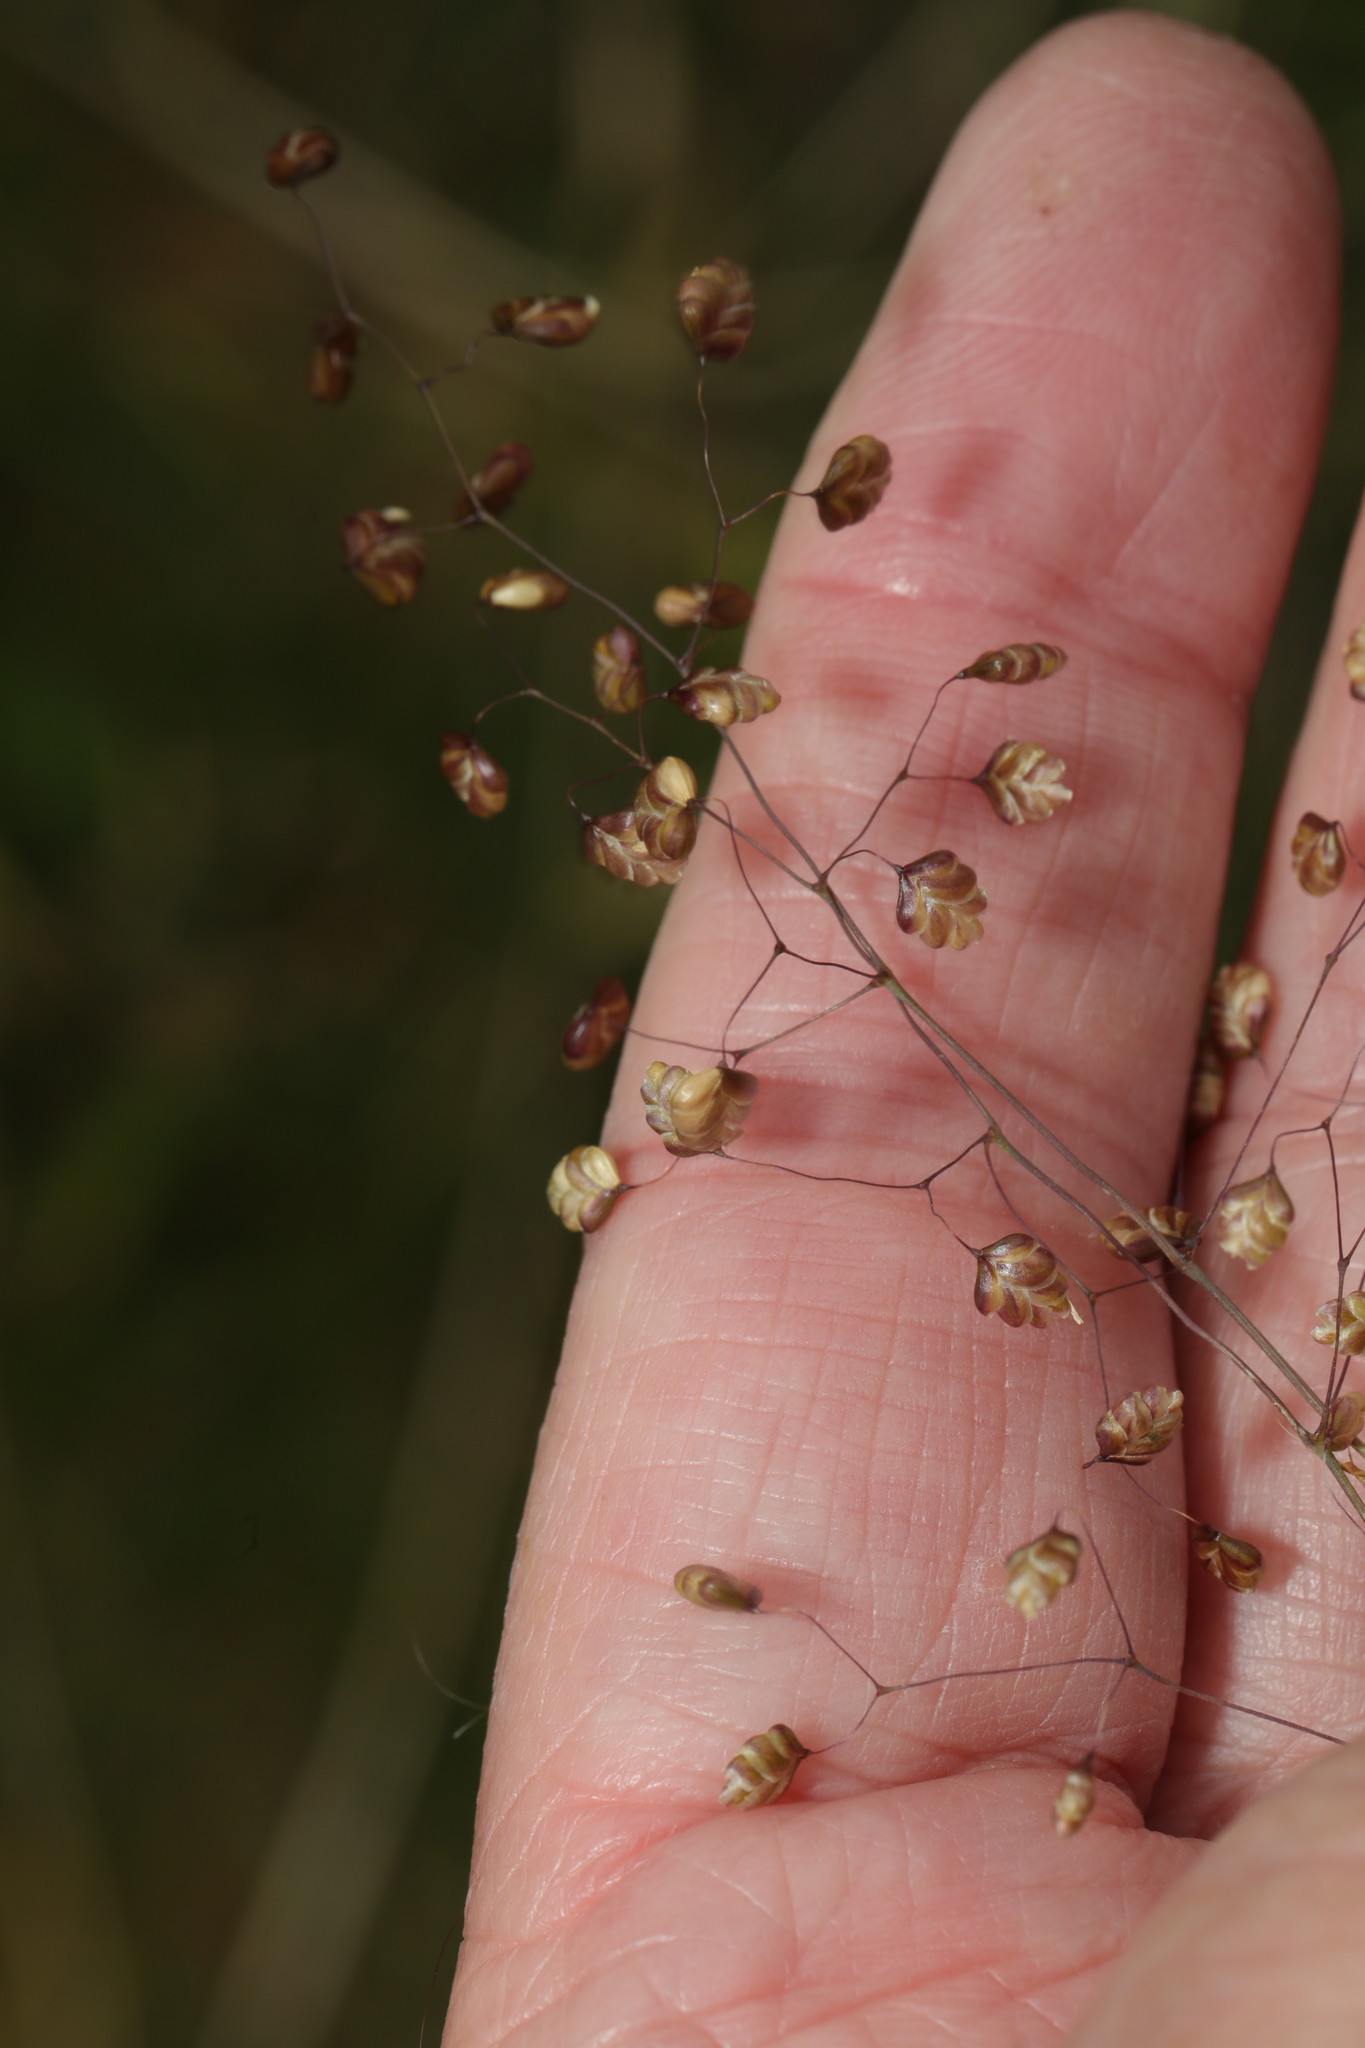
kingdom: Plantae
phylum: Tracheophyta
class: Liliopsida
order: Poales
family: Poaceae
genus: Briza
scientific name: Briza media
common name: Quaking grass
